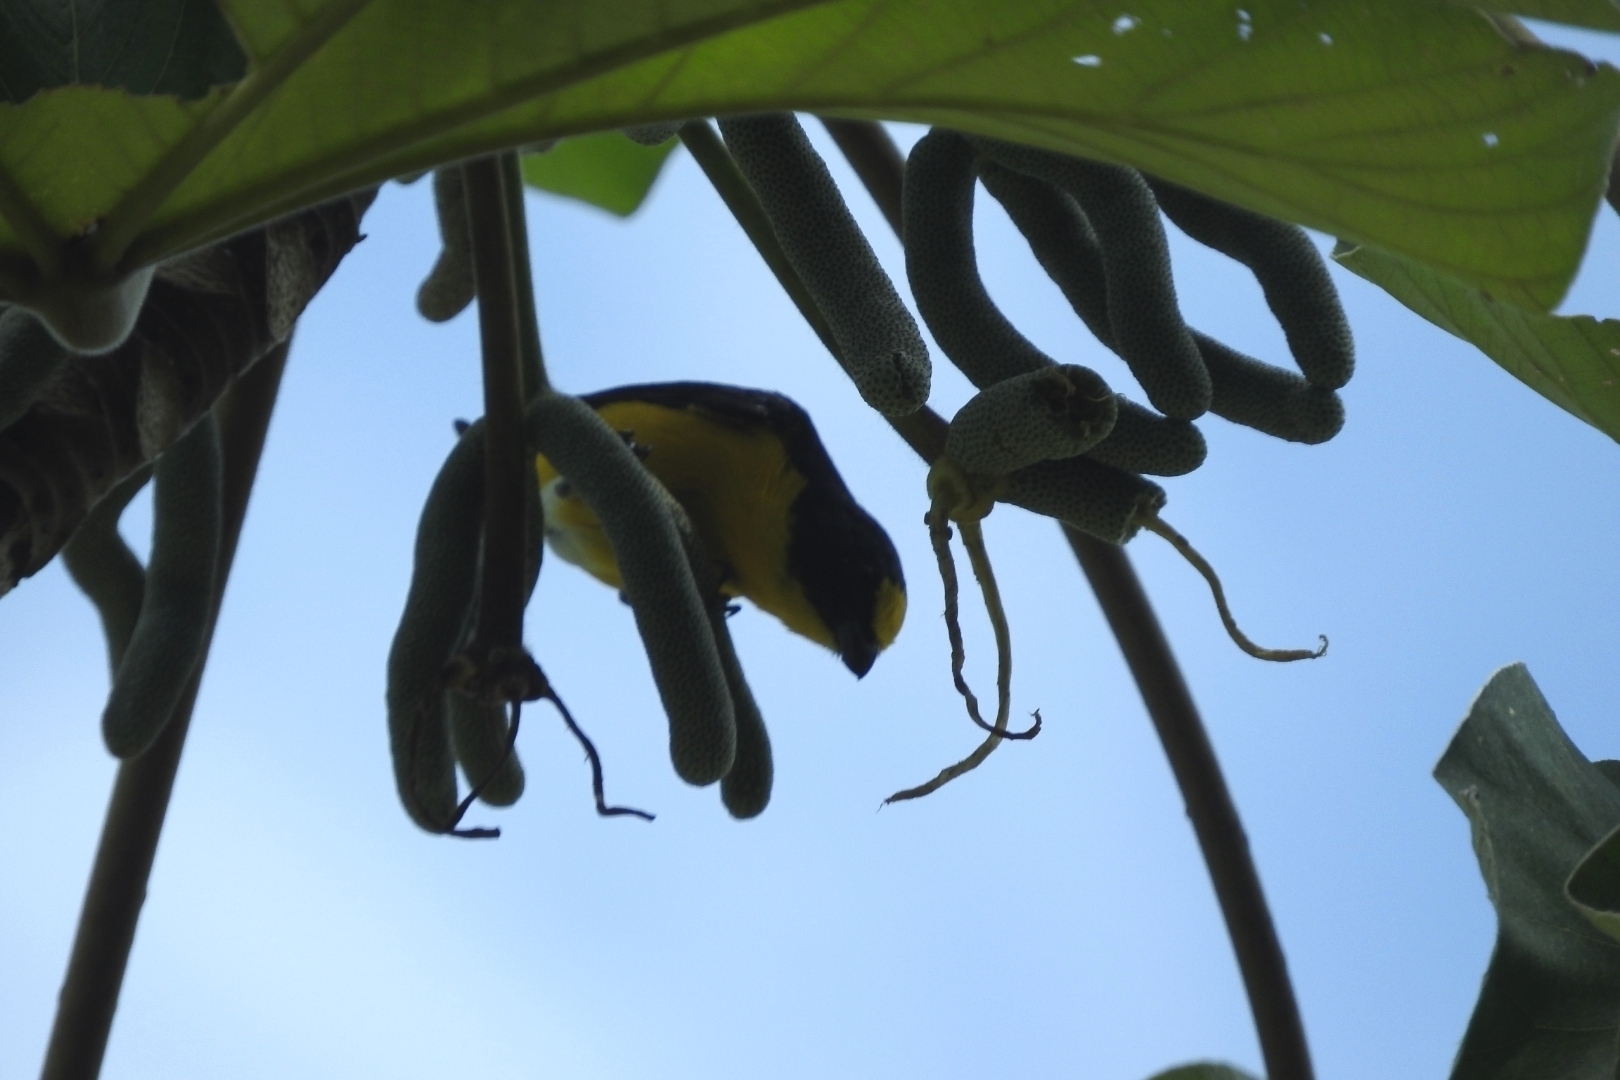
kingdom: Animalia
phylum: Chordata
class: Aves
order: Passeriformes
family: Fringillidae
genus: Euphonia
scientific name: Euphonia hirundinacea
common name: Yellow-throated euphonia
